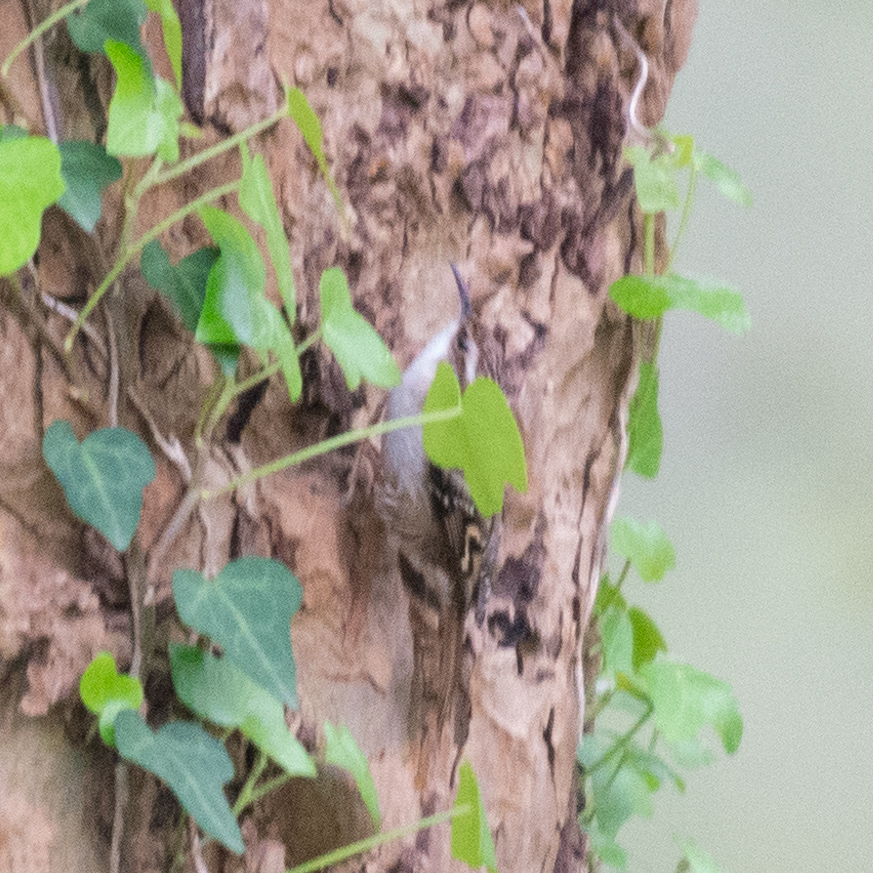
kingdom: Animalia
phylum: Chordata
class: Aves
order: Passeriformes
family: Certhiidae
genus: Certhia
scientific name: Certhia brachydactyla
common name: Short-toed treecreeper
